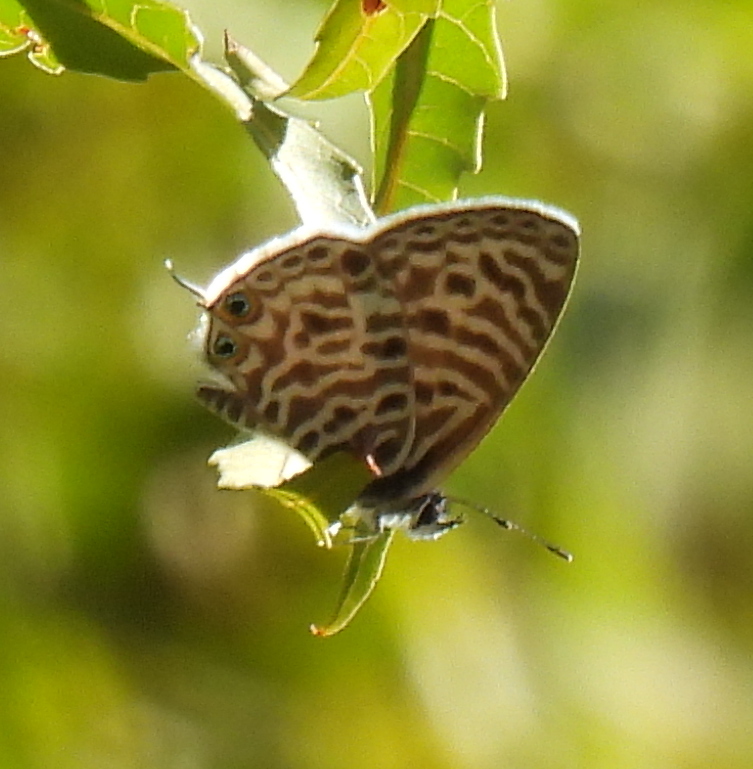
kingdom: Animalia
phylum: Arthropoda
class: Insecta
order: Lepidoptera
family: Lycaenidae
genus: Leptotes
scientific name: Leptotes
